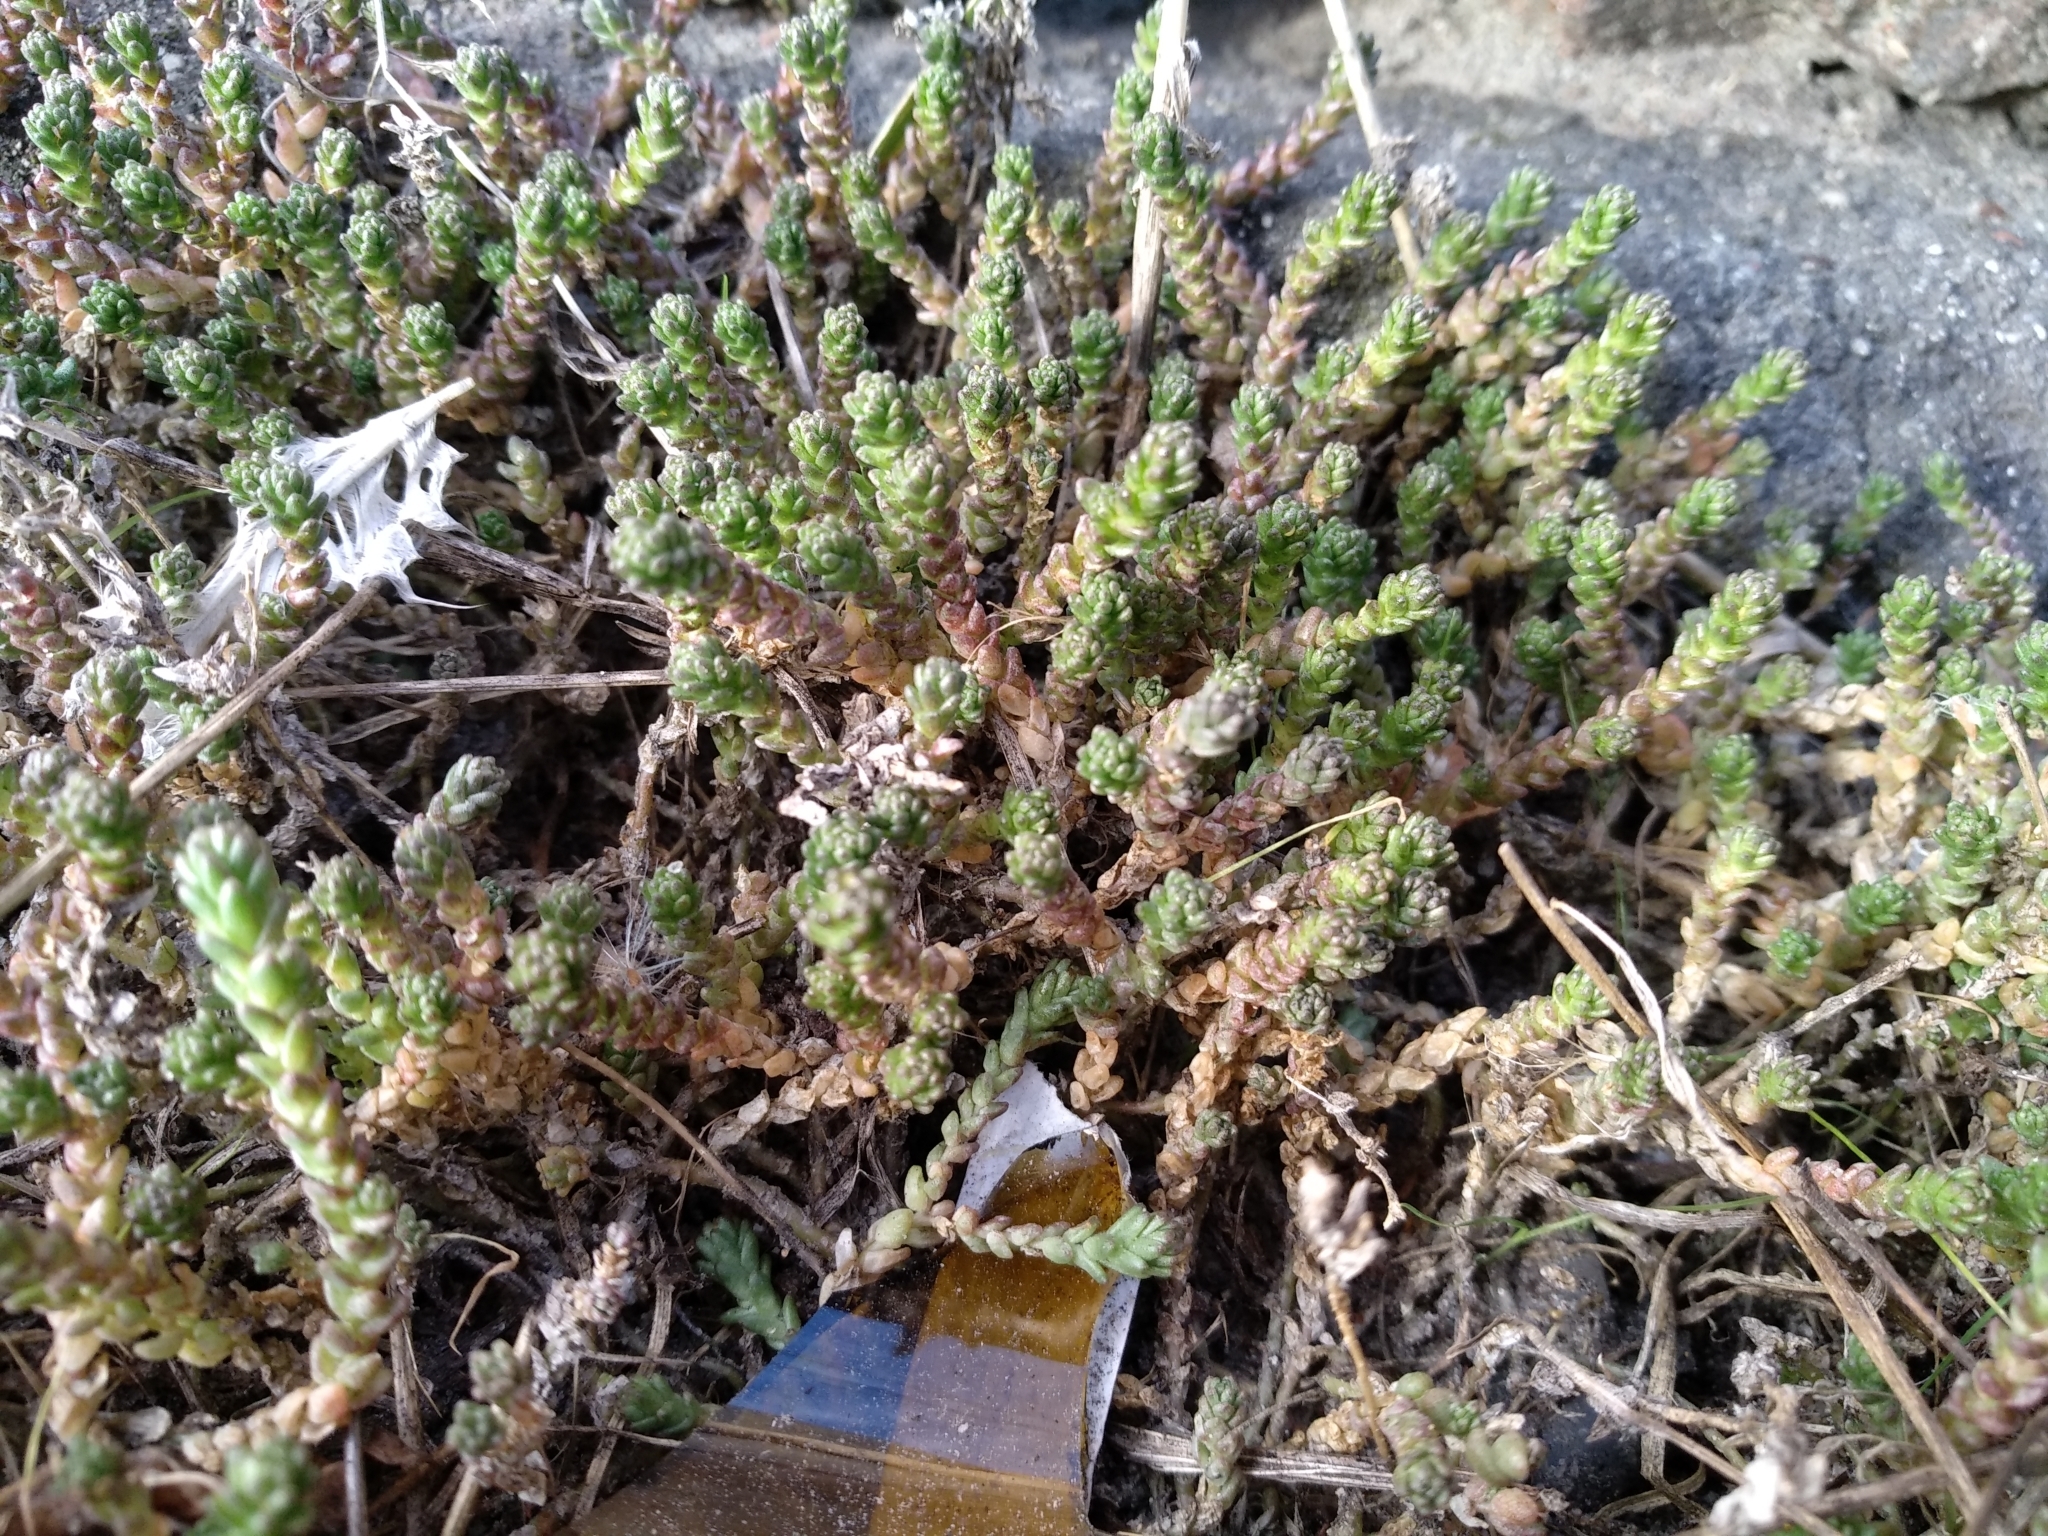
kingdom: Plantae
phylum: Tracheophyta
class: Magnoliopsida
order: Saxifragales
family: Crassulaceae
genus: Sedum
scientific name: Sedum acre
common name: Biting stonecrop
